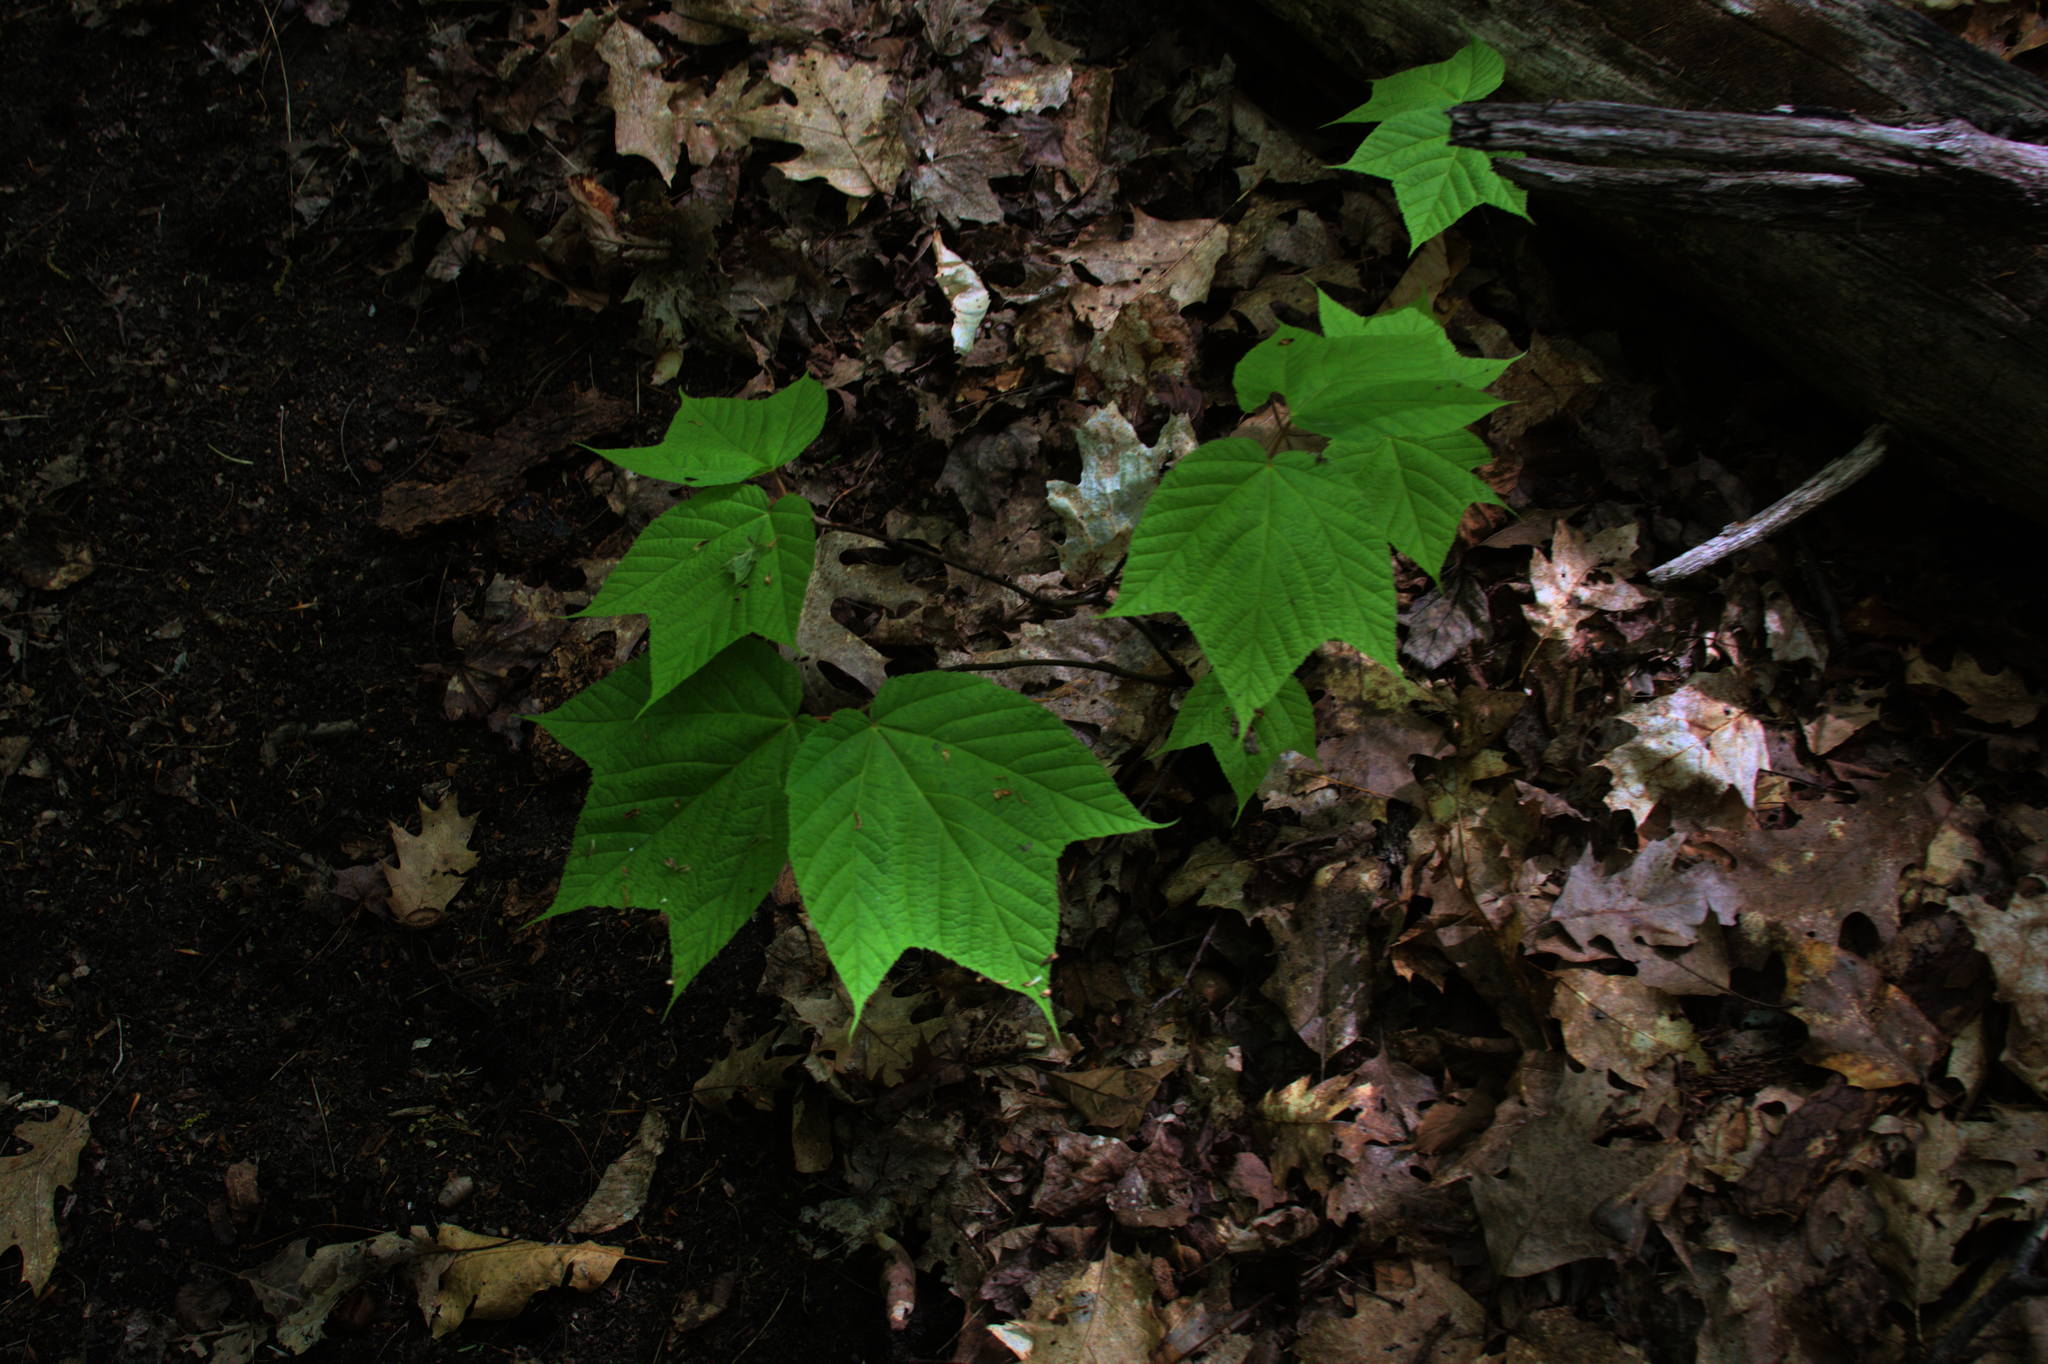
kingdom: Plantae
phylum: Tracheophyta
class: Magnoliopsida
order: Sapindales
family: Sapindaceae
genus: Acer
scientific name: Acer pensylvanicum
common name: Moosewood
